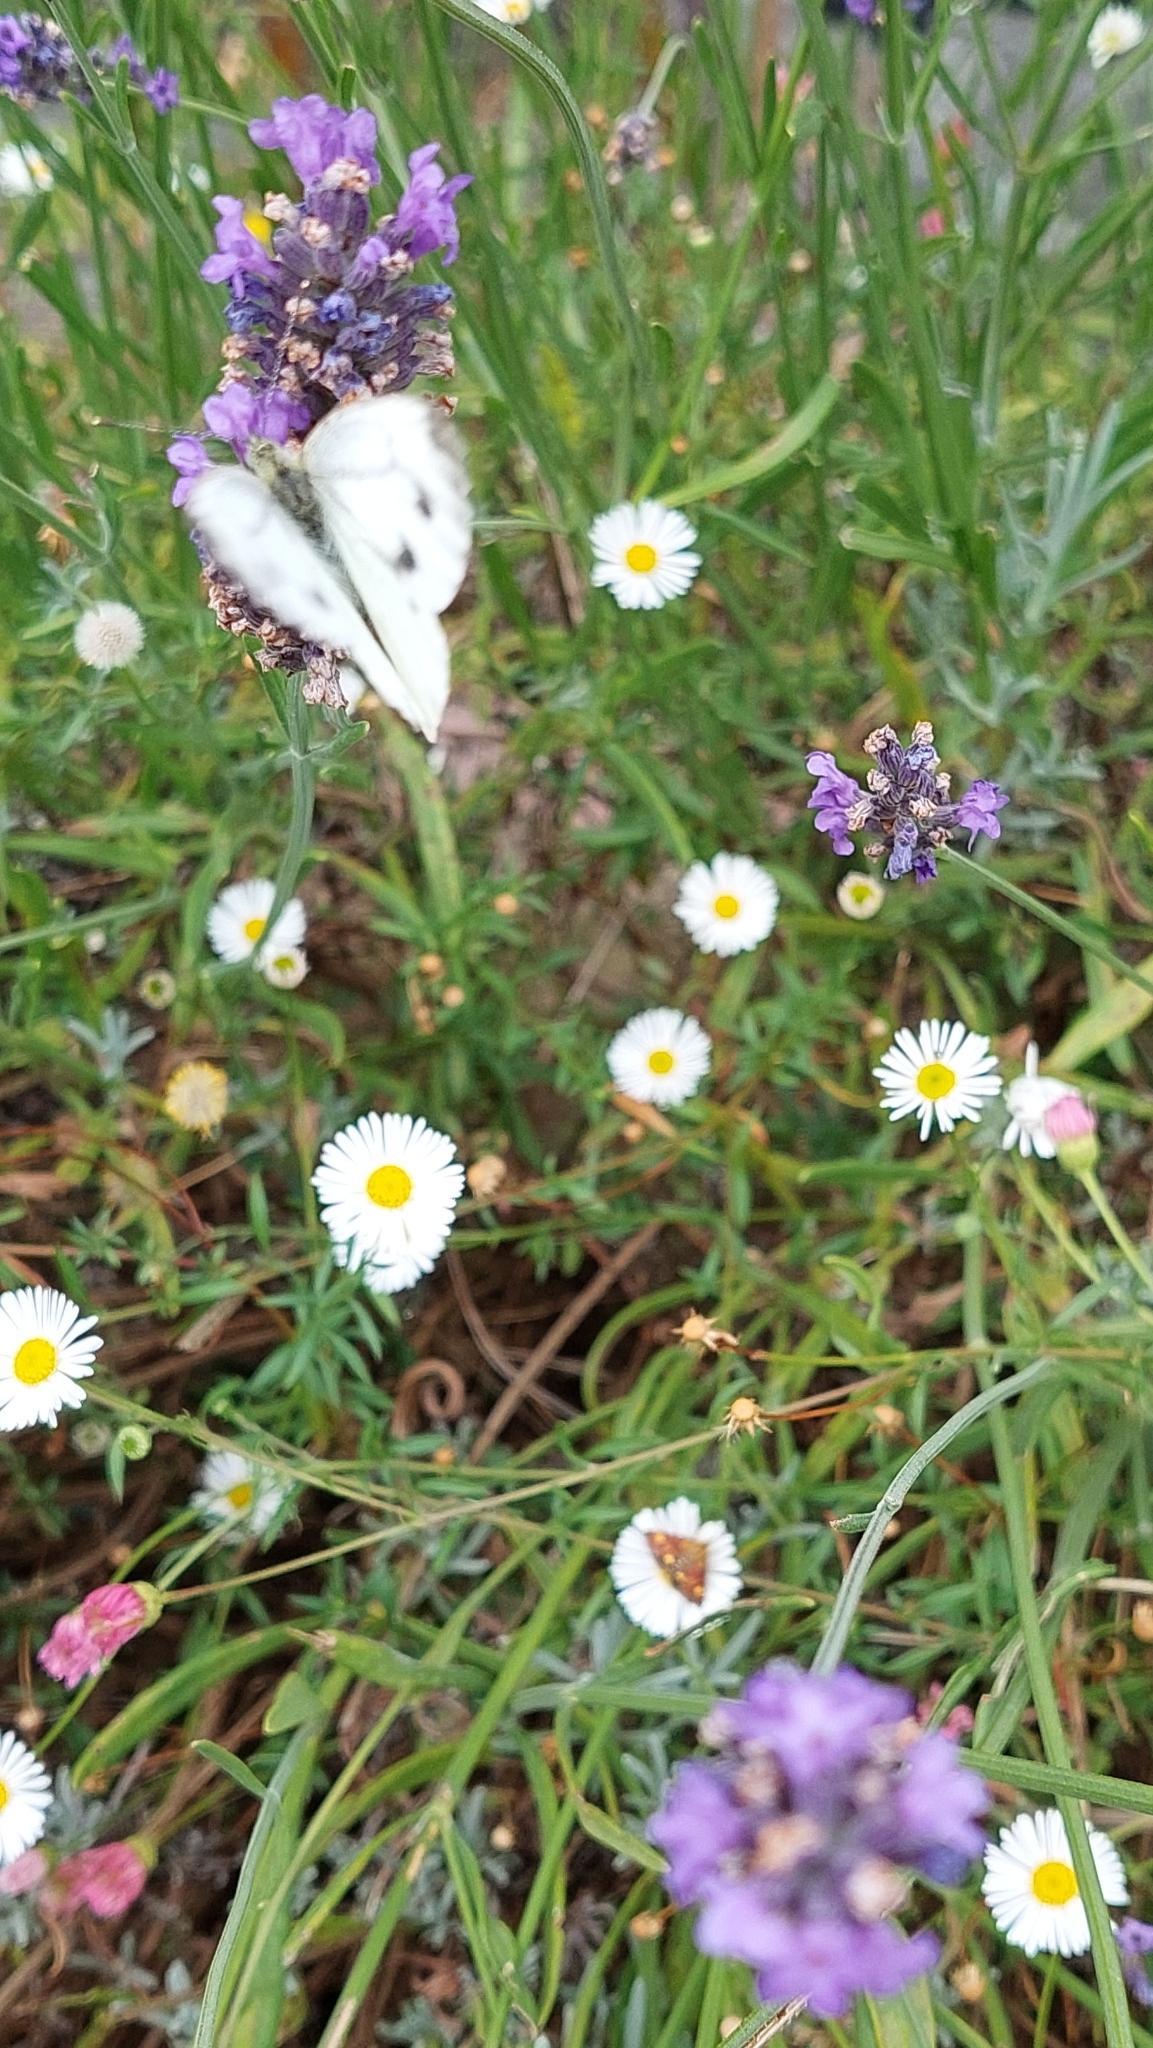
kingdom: Animalia
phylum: Arthropoda
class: Insecta
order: Lepidoptera
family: Pieridae
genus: Pieris
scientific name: Pieris napi
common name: Green-veined white
